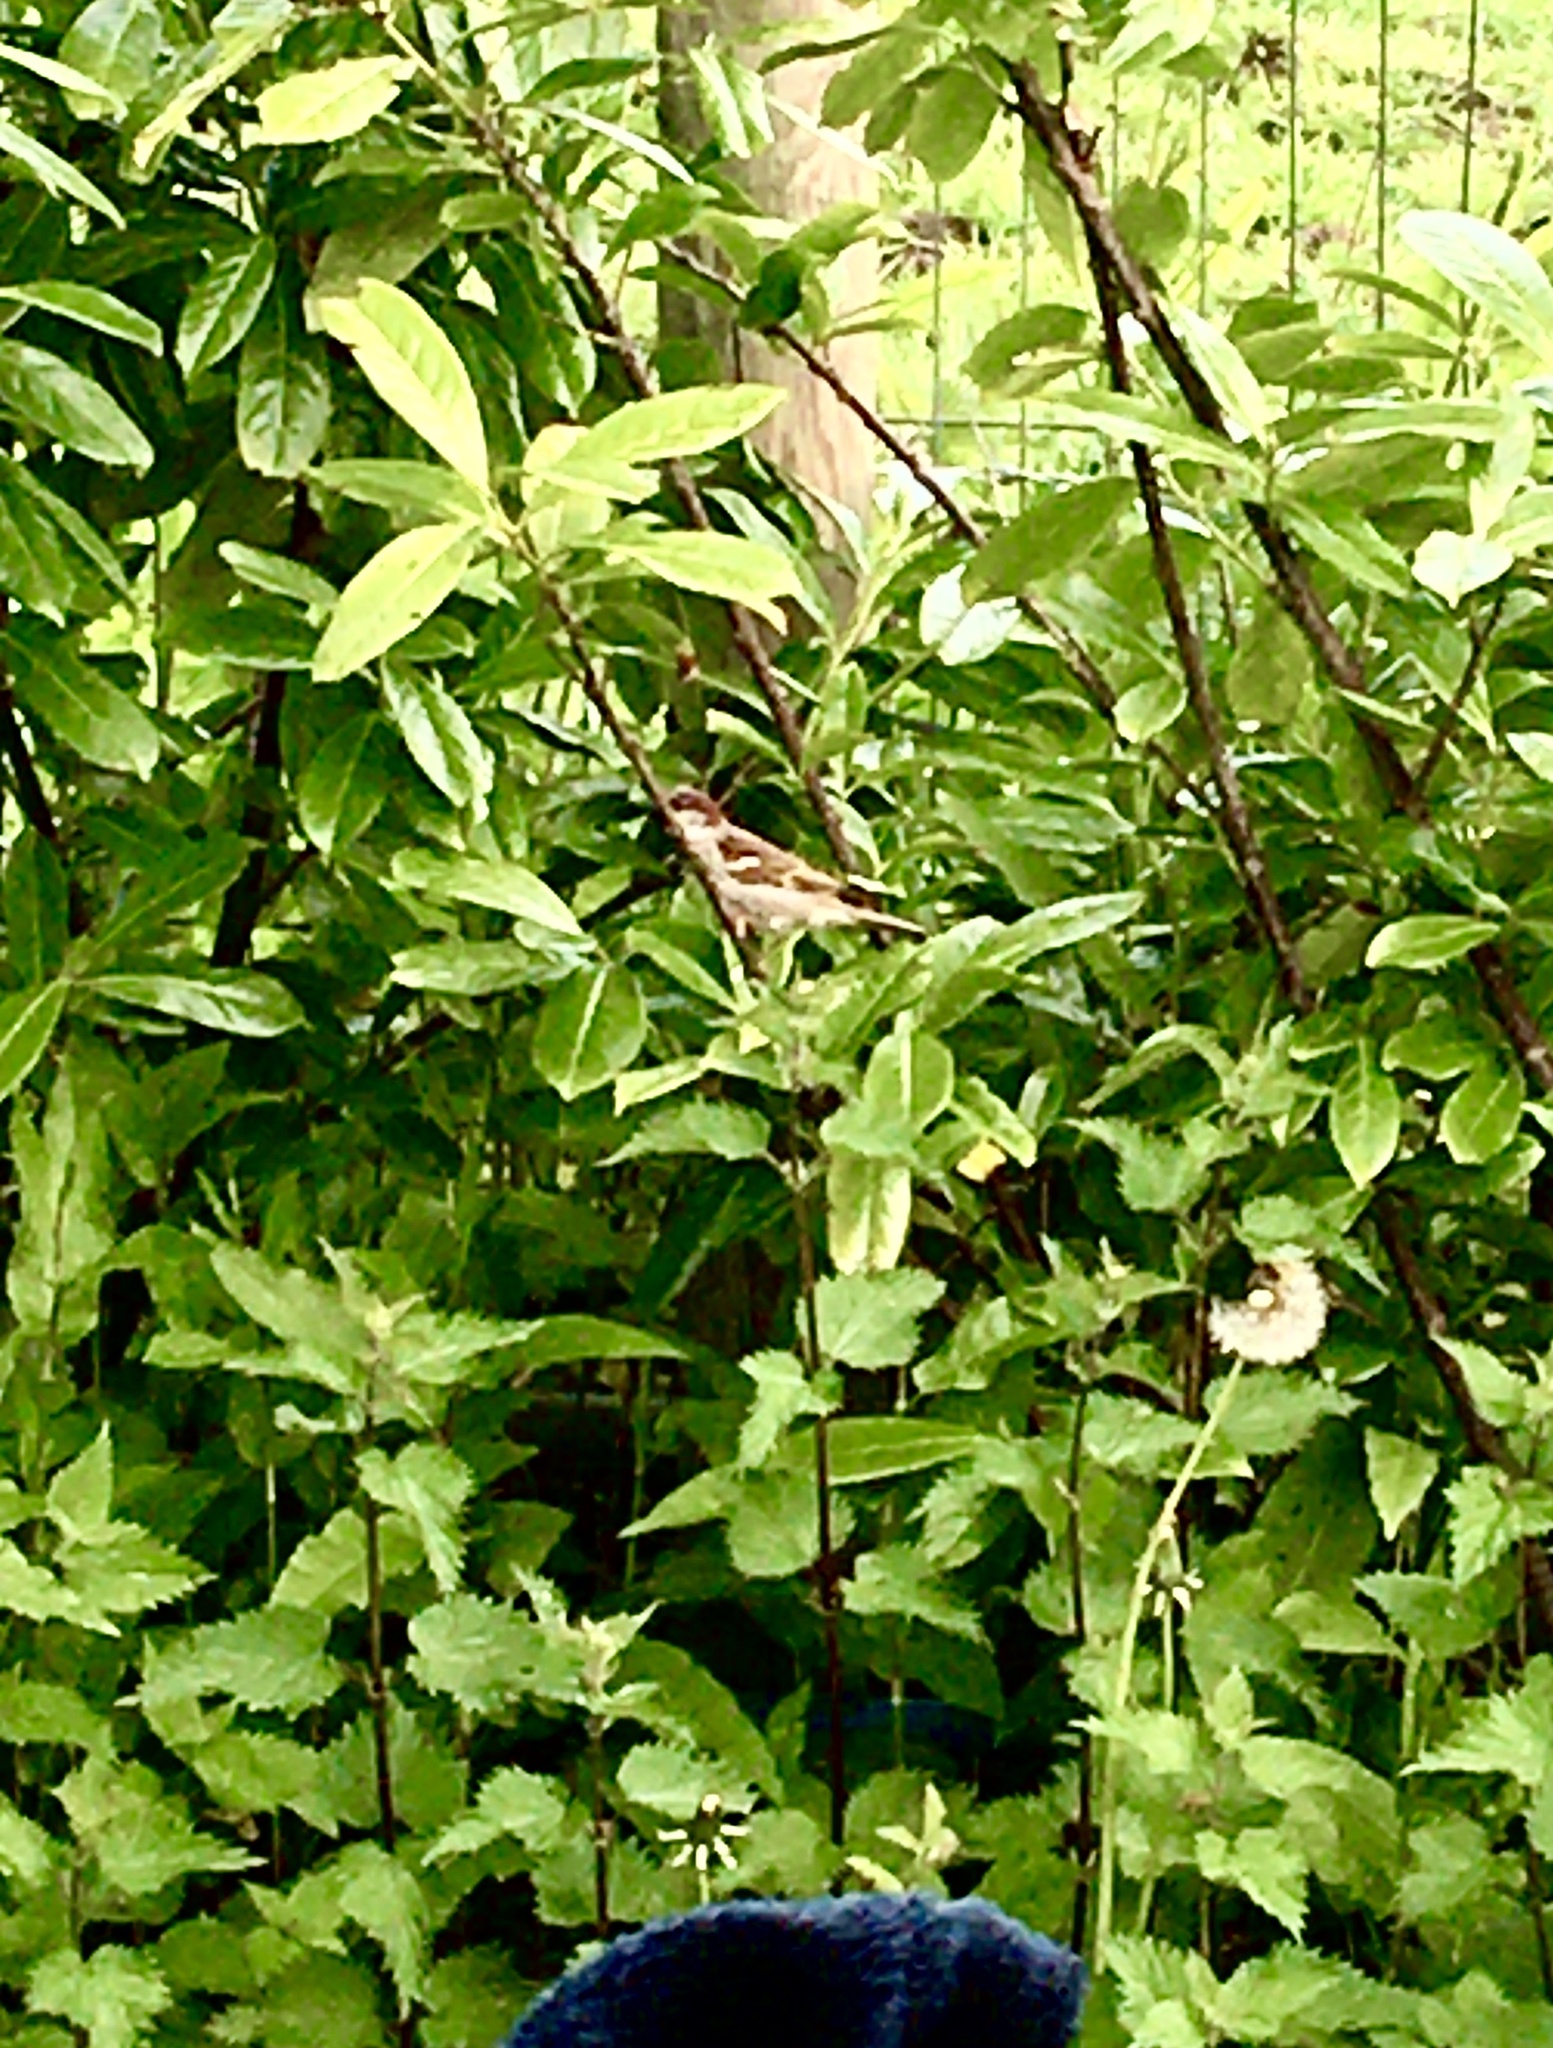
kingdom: Animalia
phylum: Chordata
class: Aves
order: Passeriformes
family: Passeridae
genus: Passer
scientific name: Passer domesticus
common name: House sparrow
